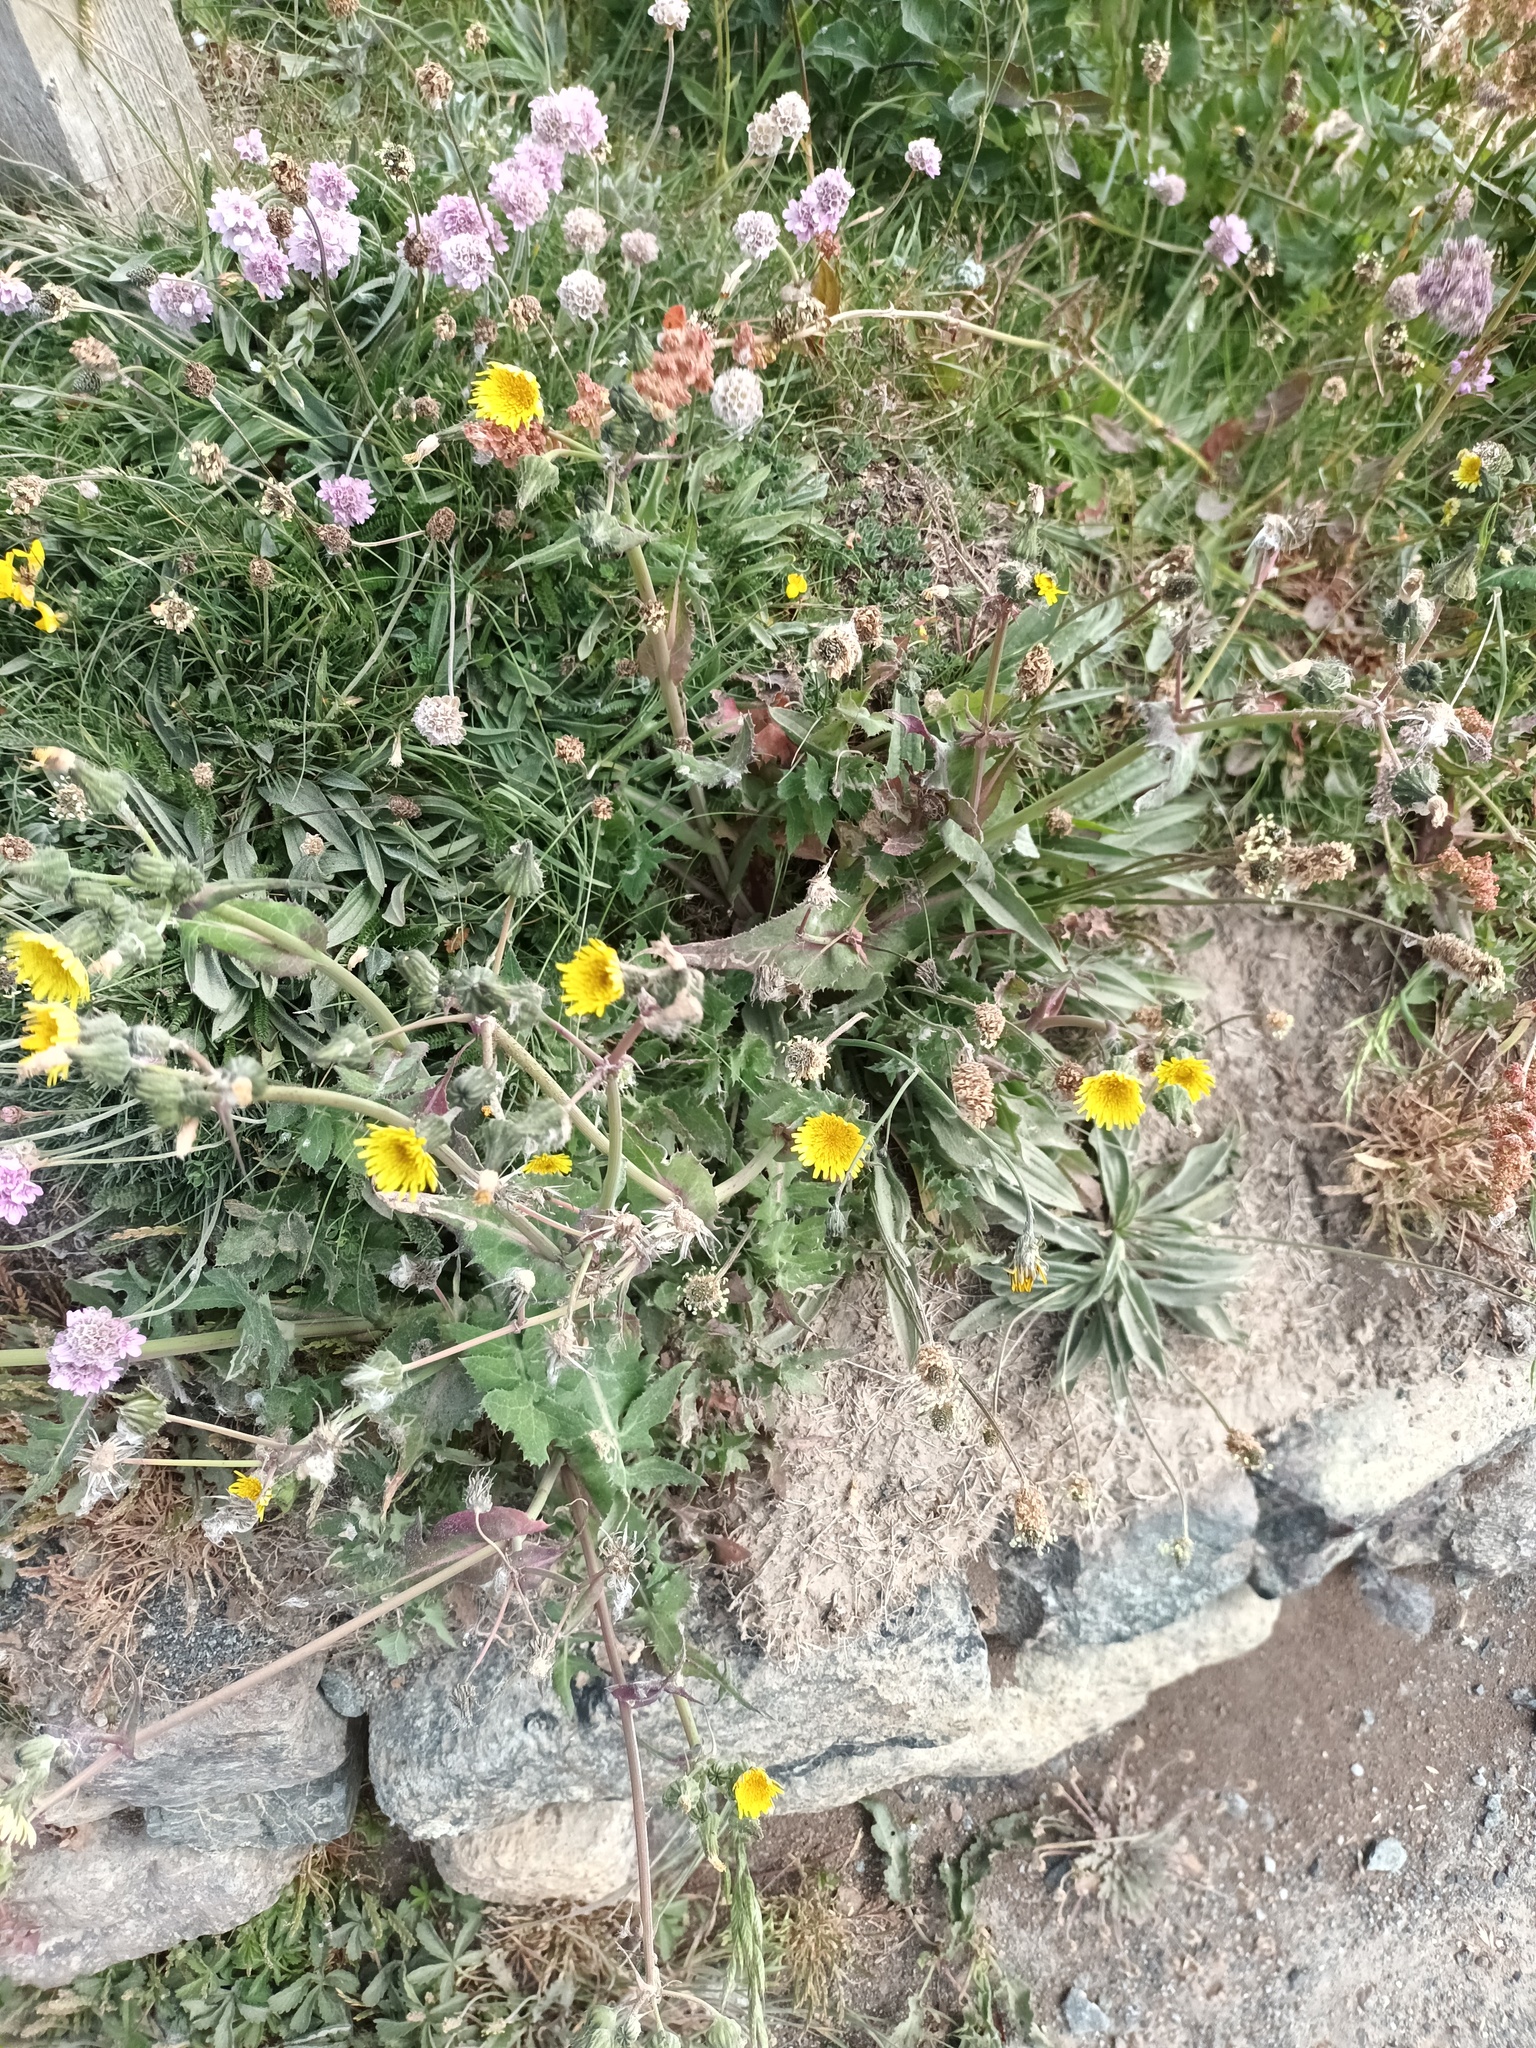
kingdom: Plantae
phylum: Tracheophyta
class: Magnoliopsida
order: Asterales
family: Asteraceae
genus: Sonchus
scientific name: Sonchus oleraceus
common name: Common sowthistle
